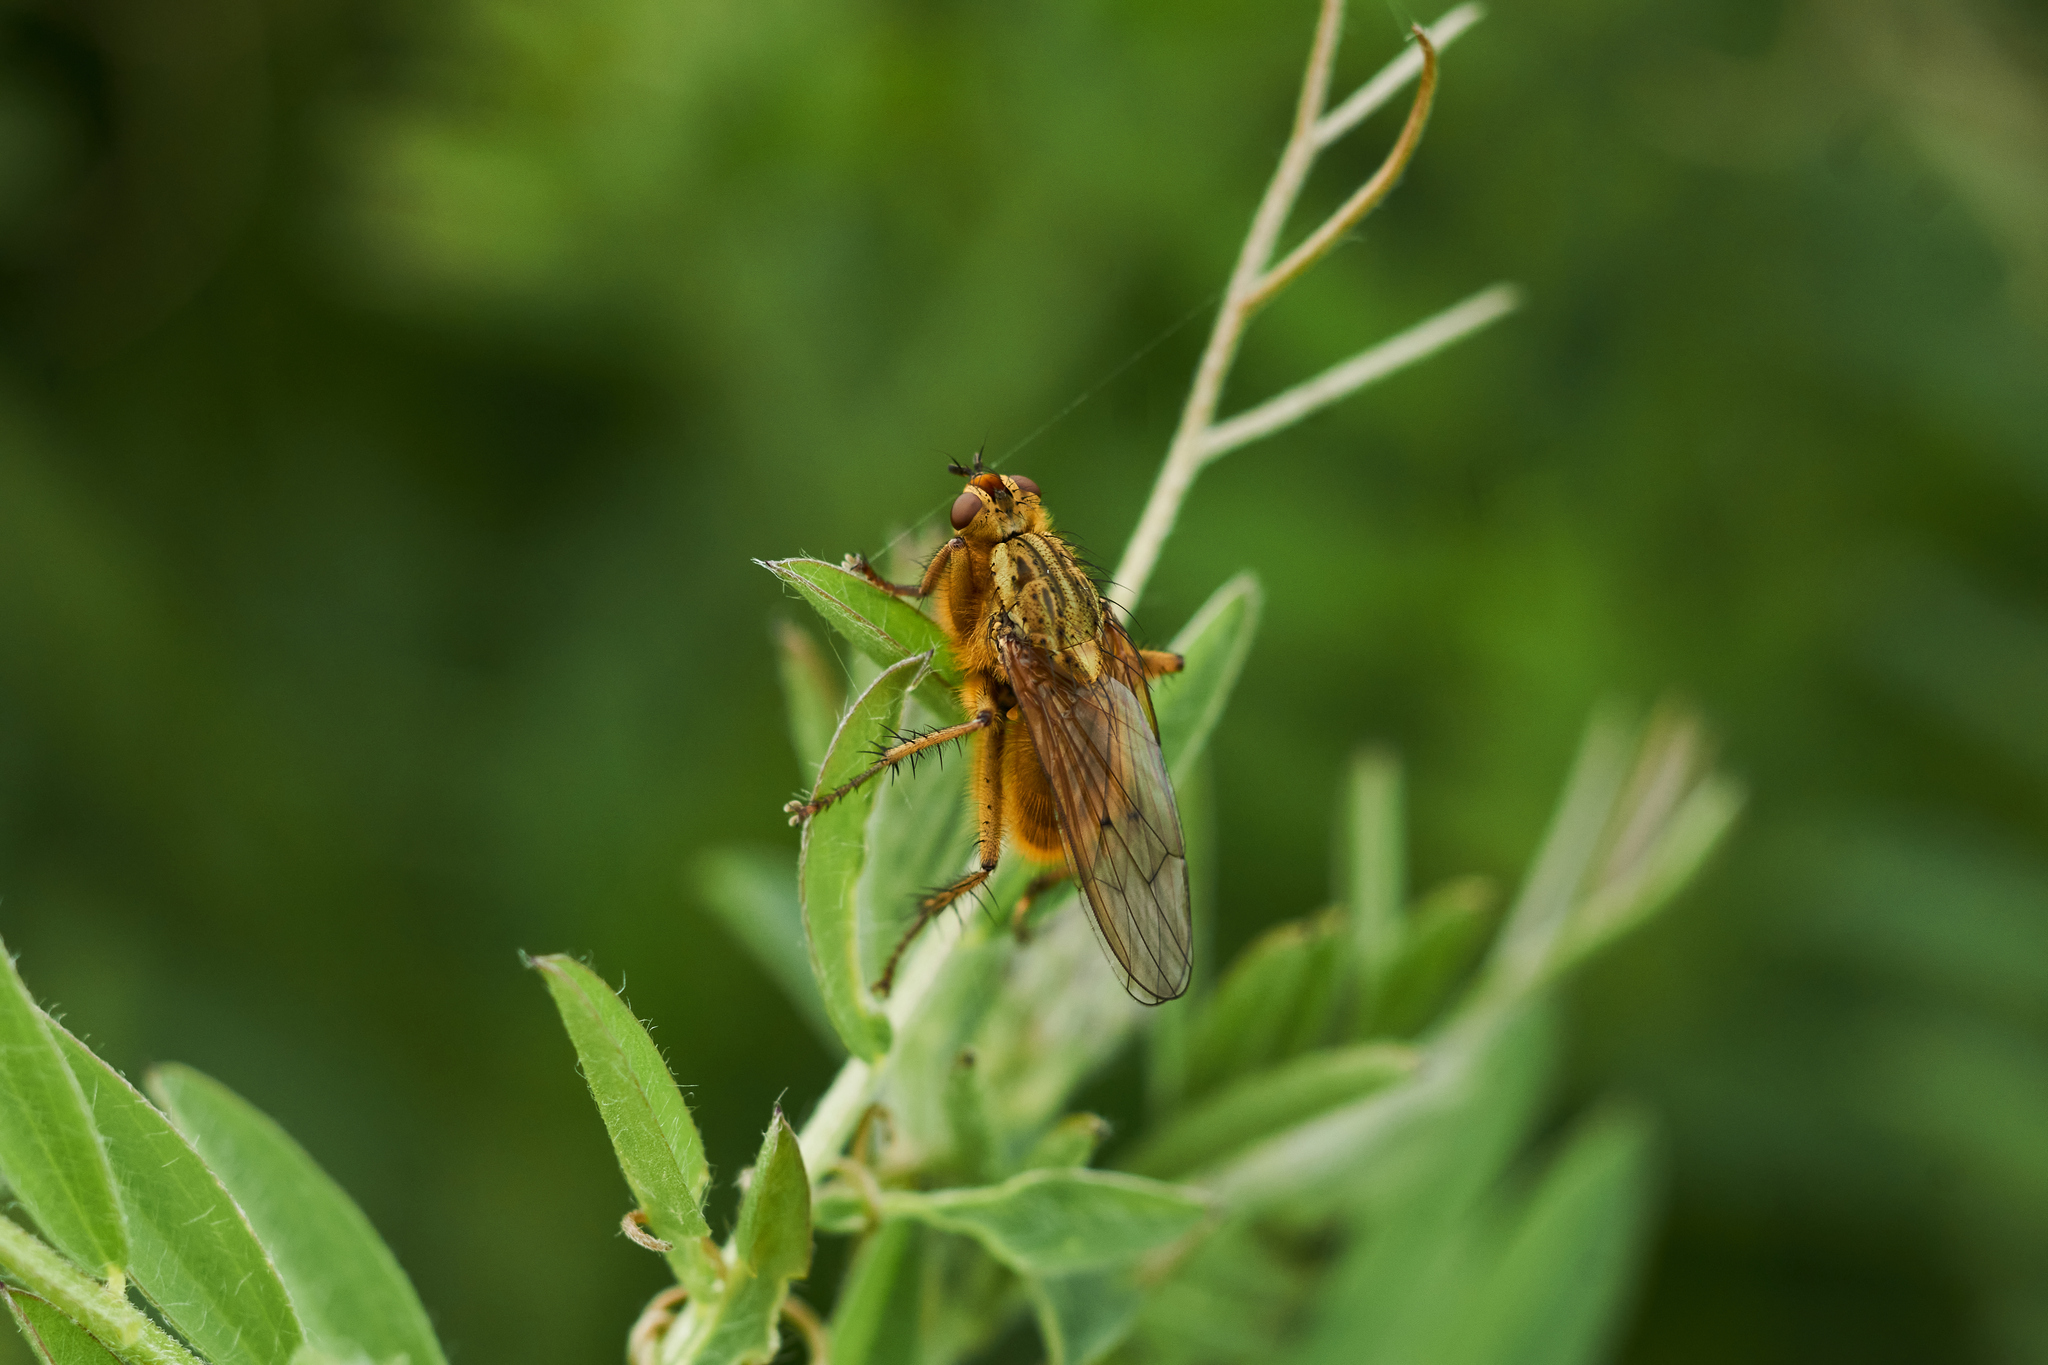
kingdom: Animalia
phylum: Arthropoda
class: Insecta
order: Diptera
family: Scathophagidae
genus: Scathophaga
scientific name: Scathophaga stercoraria
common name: Yellow dung fly
